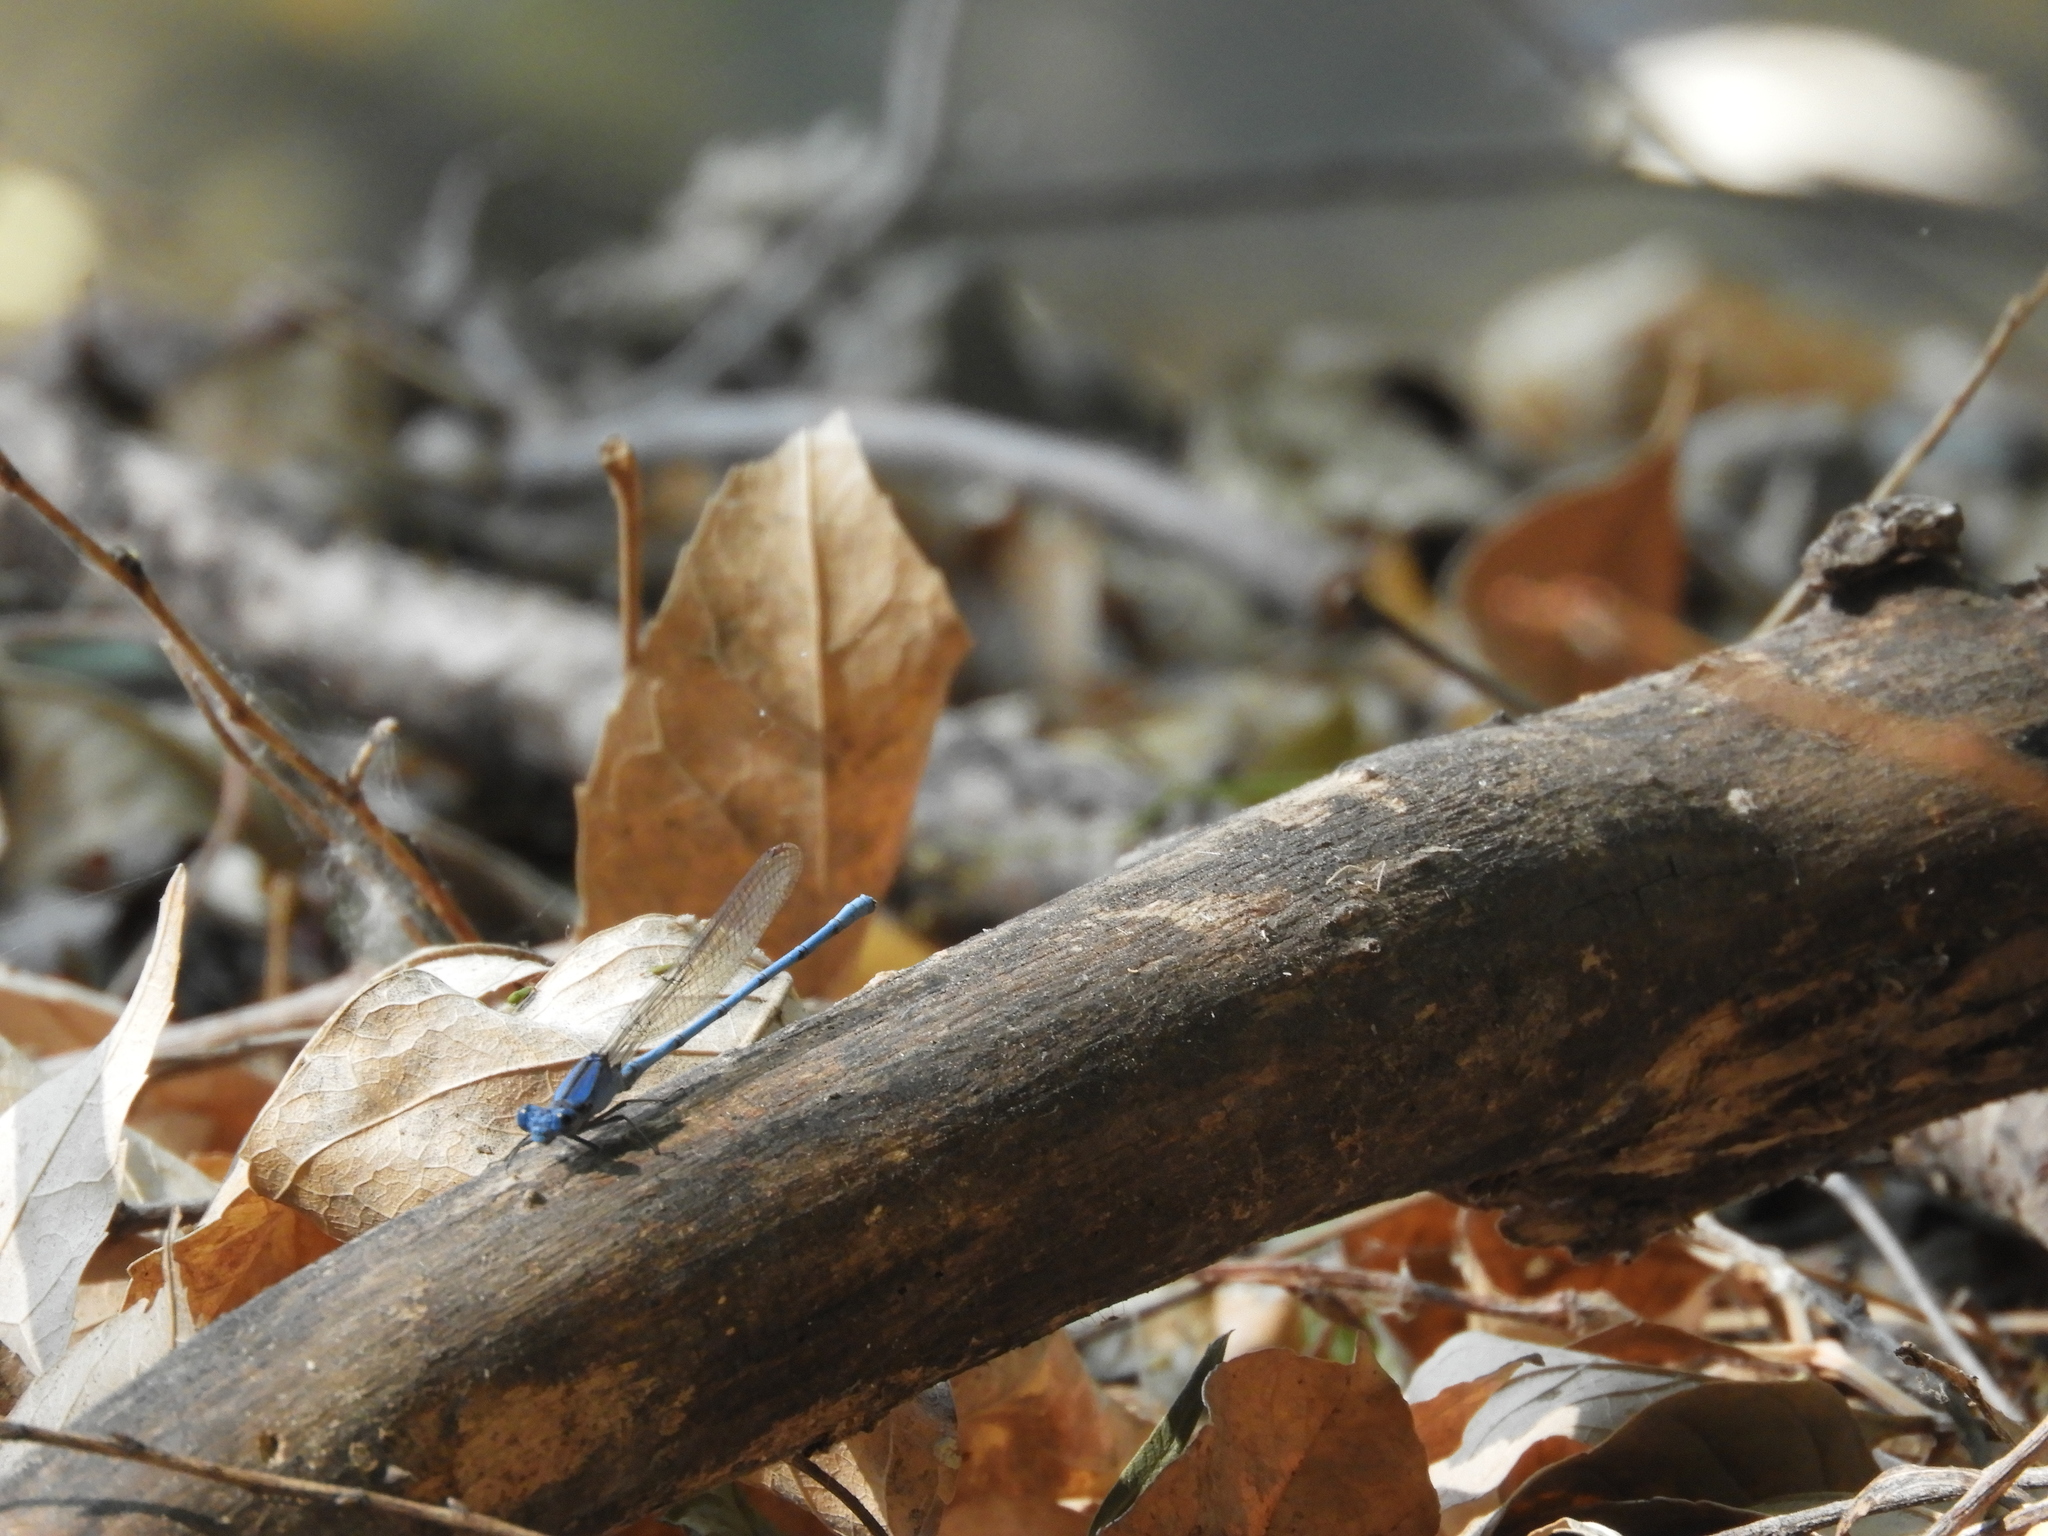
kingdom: Animalia
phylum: Arthropoda
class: Insecta
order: Odonata
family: Coenagrionidae
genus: Argia
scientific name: Argia anceps
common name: Cerulean dancer
